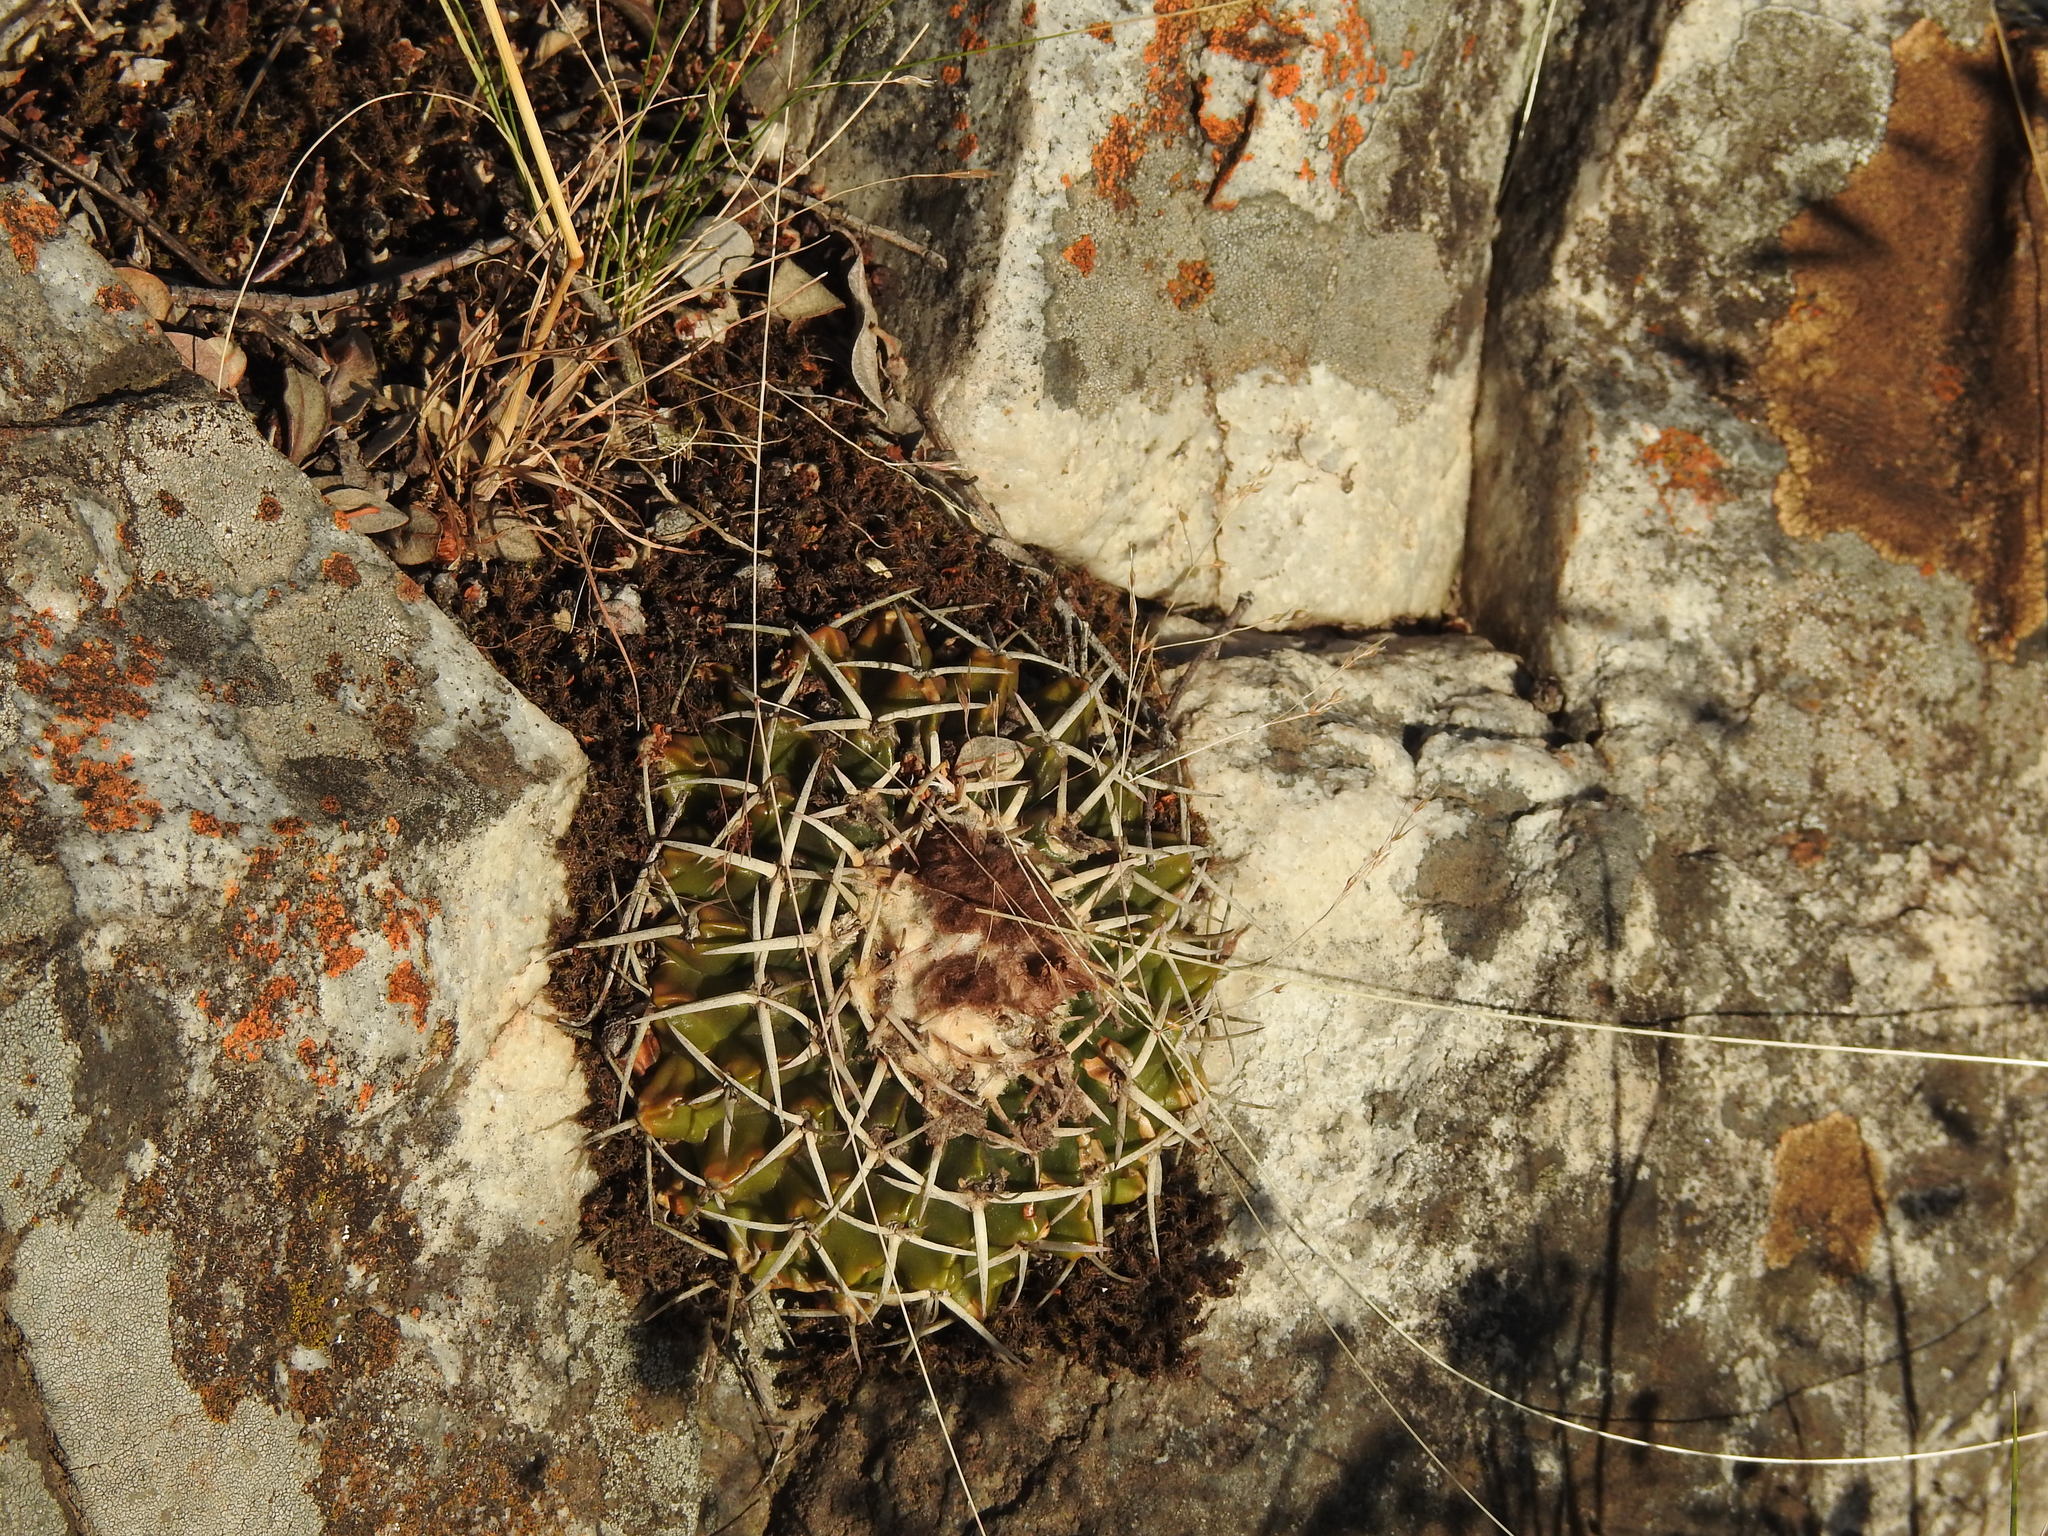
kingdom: Plantae
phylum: Tracheophyta
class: Magnoliopsida
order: Caryophyllales
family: Cactaceae
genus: Parodia
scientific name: Parodia erinacea
